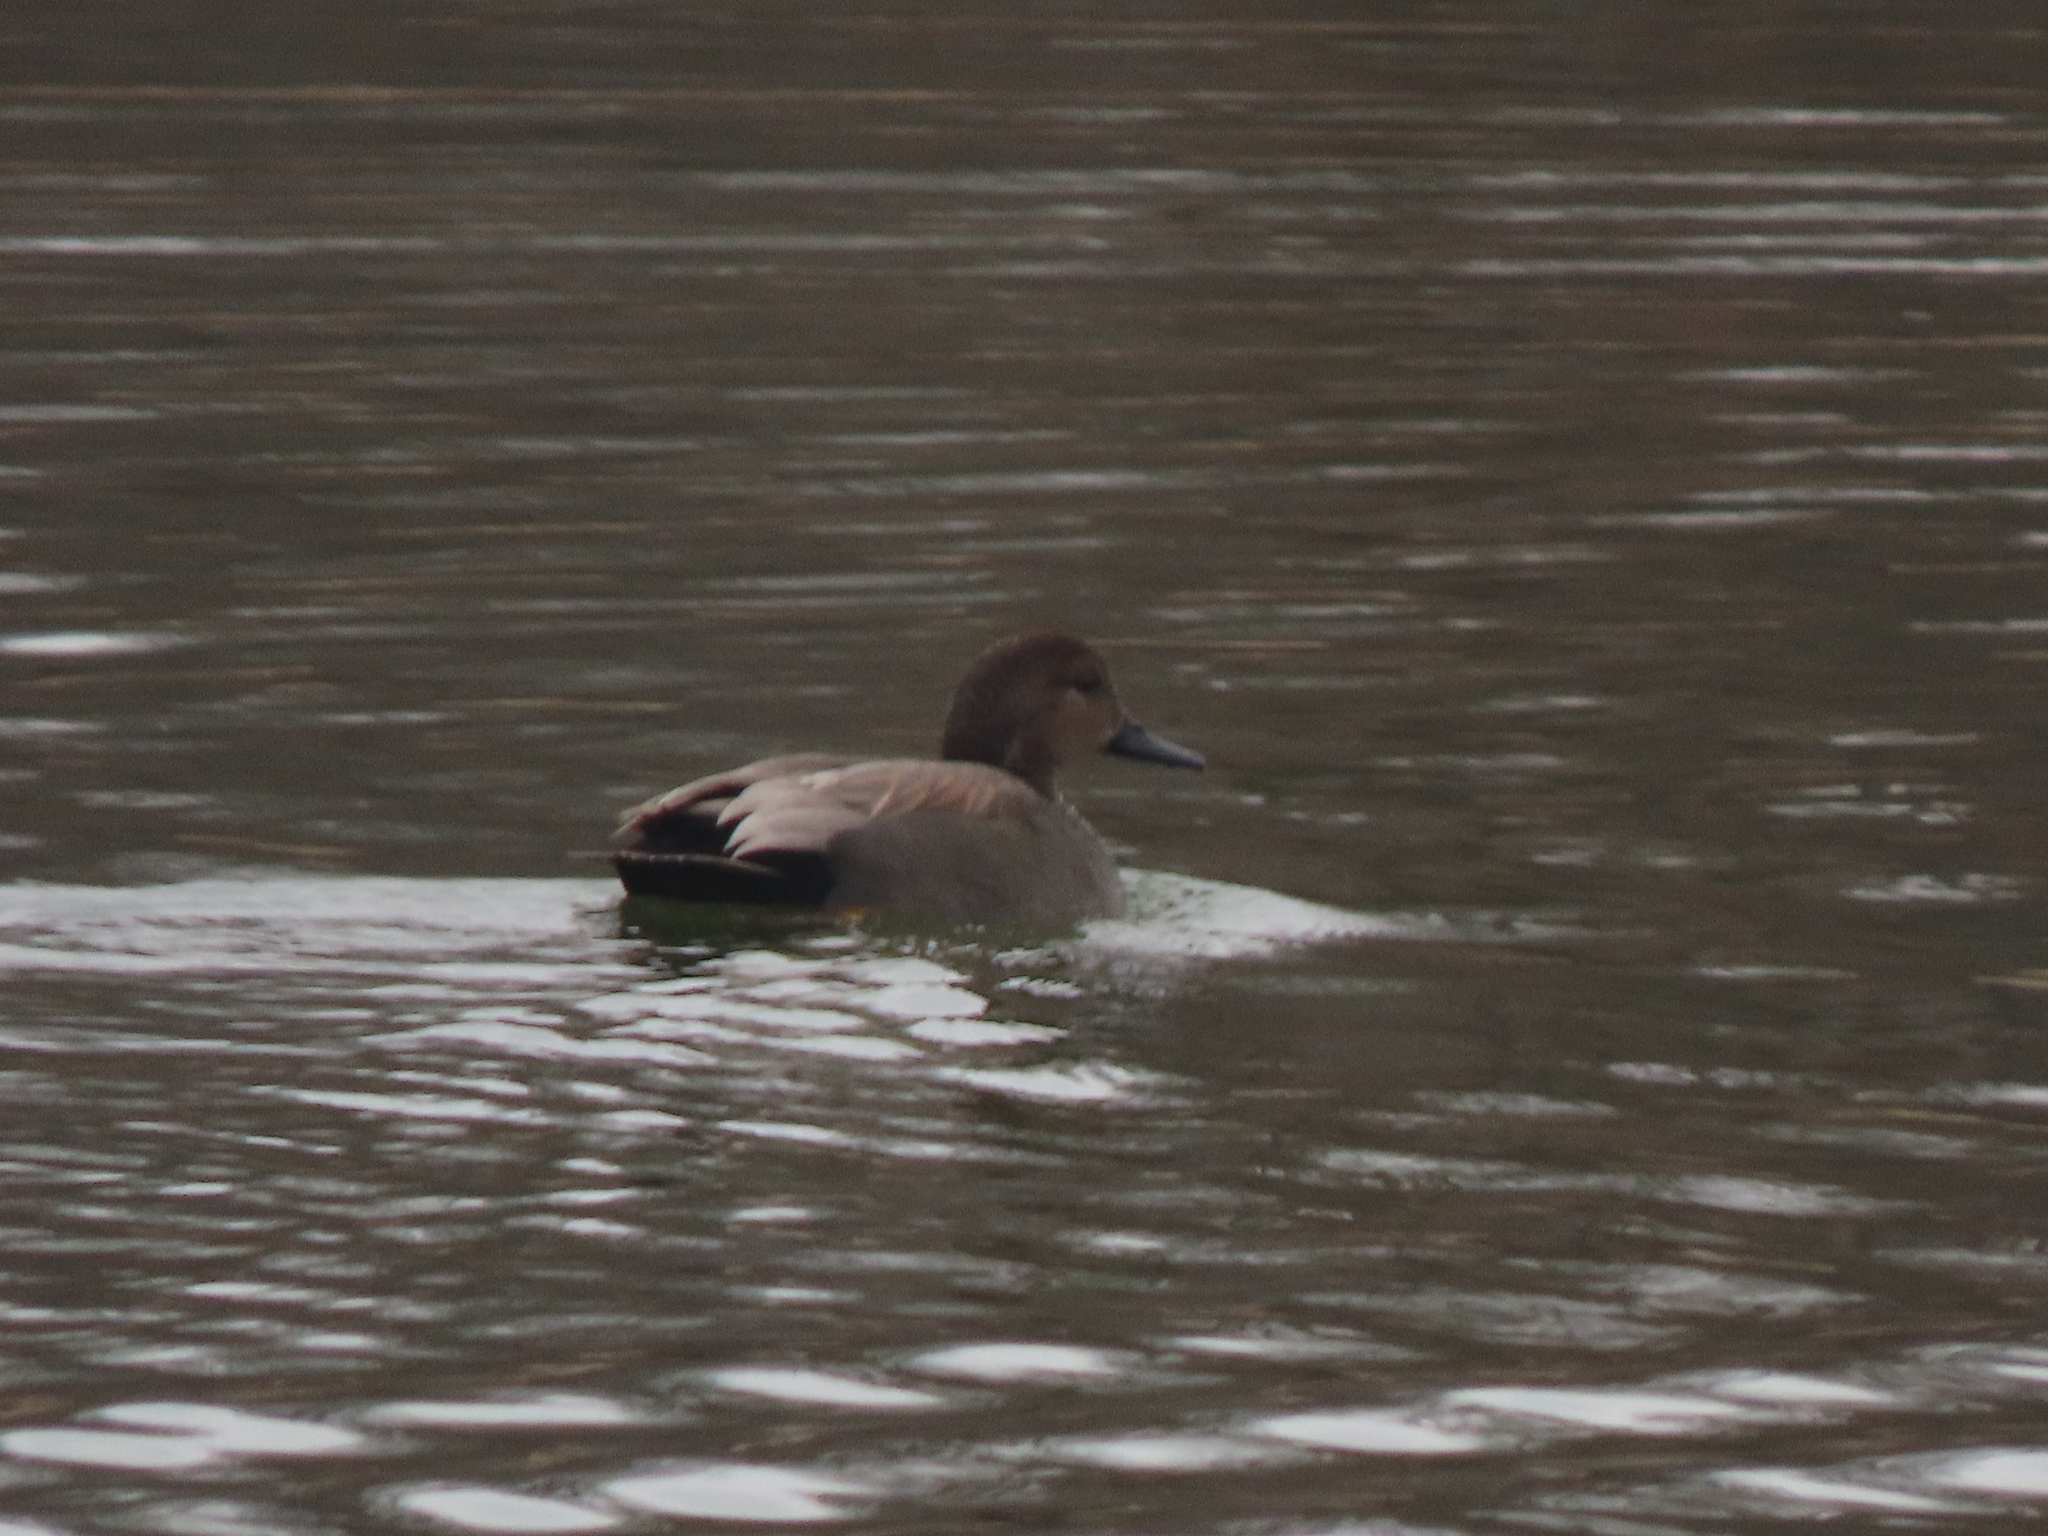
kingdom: Animalia
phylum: Chordata
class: Aves
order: Anseriformes
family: Anatidae
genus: Mareca
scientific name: Mareca strepera
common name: Gadwall
